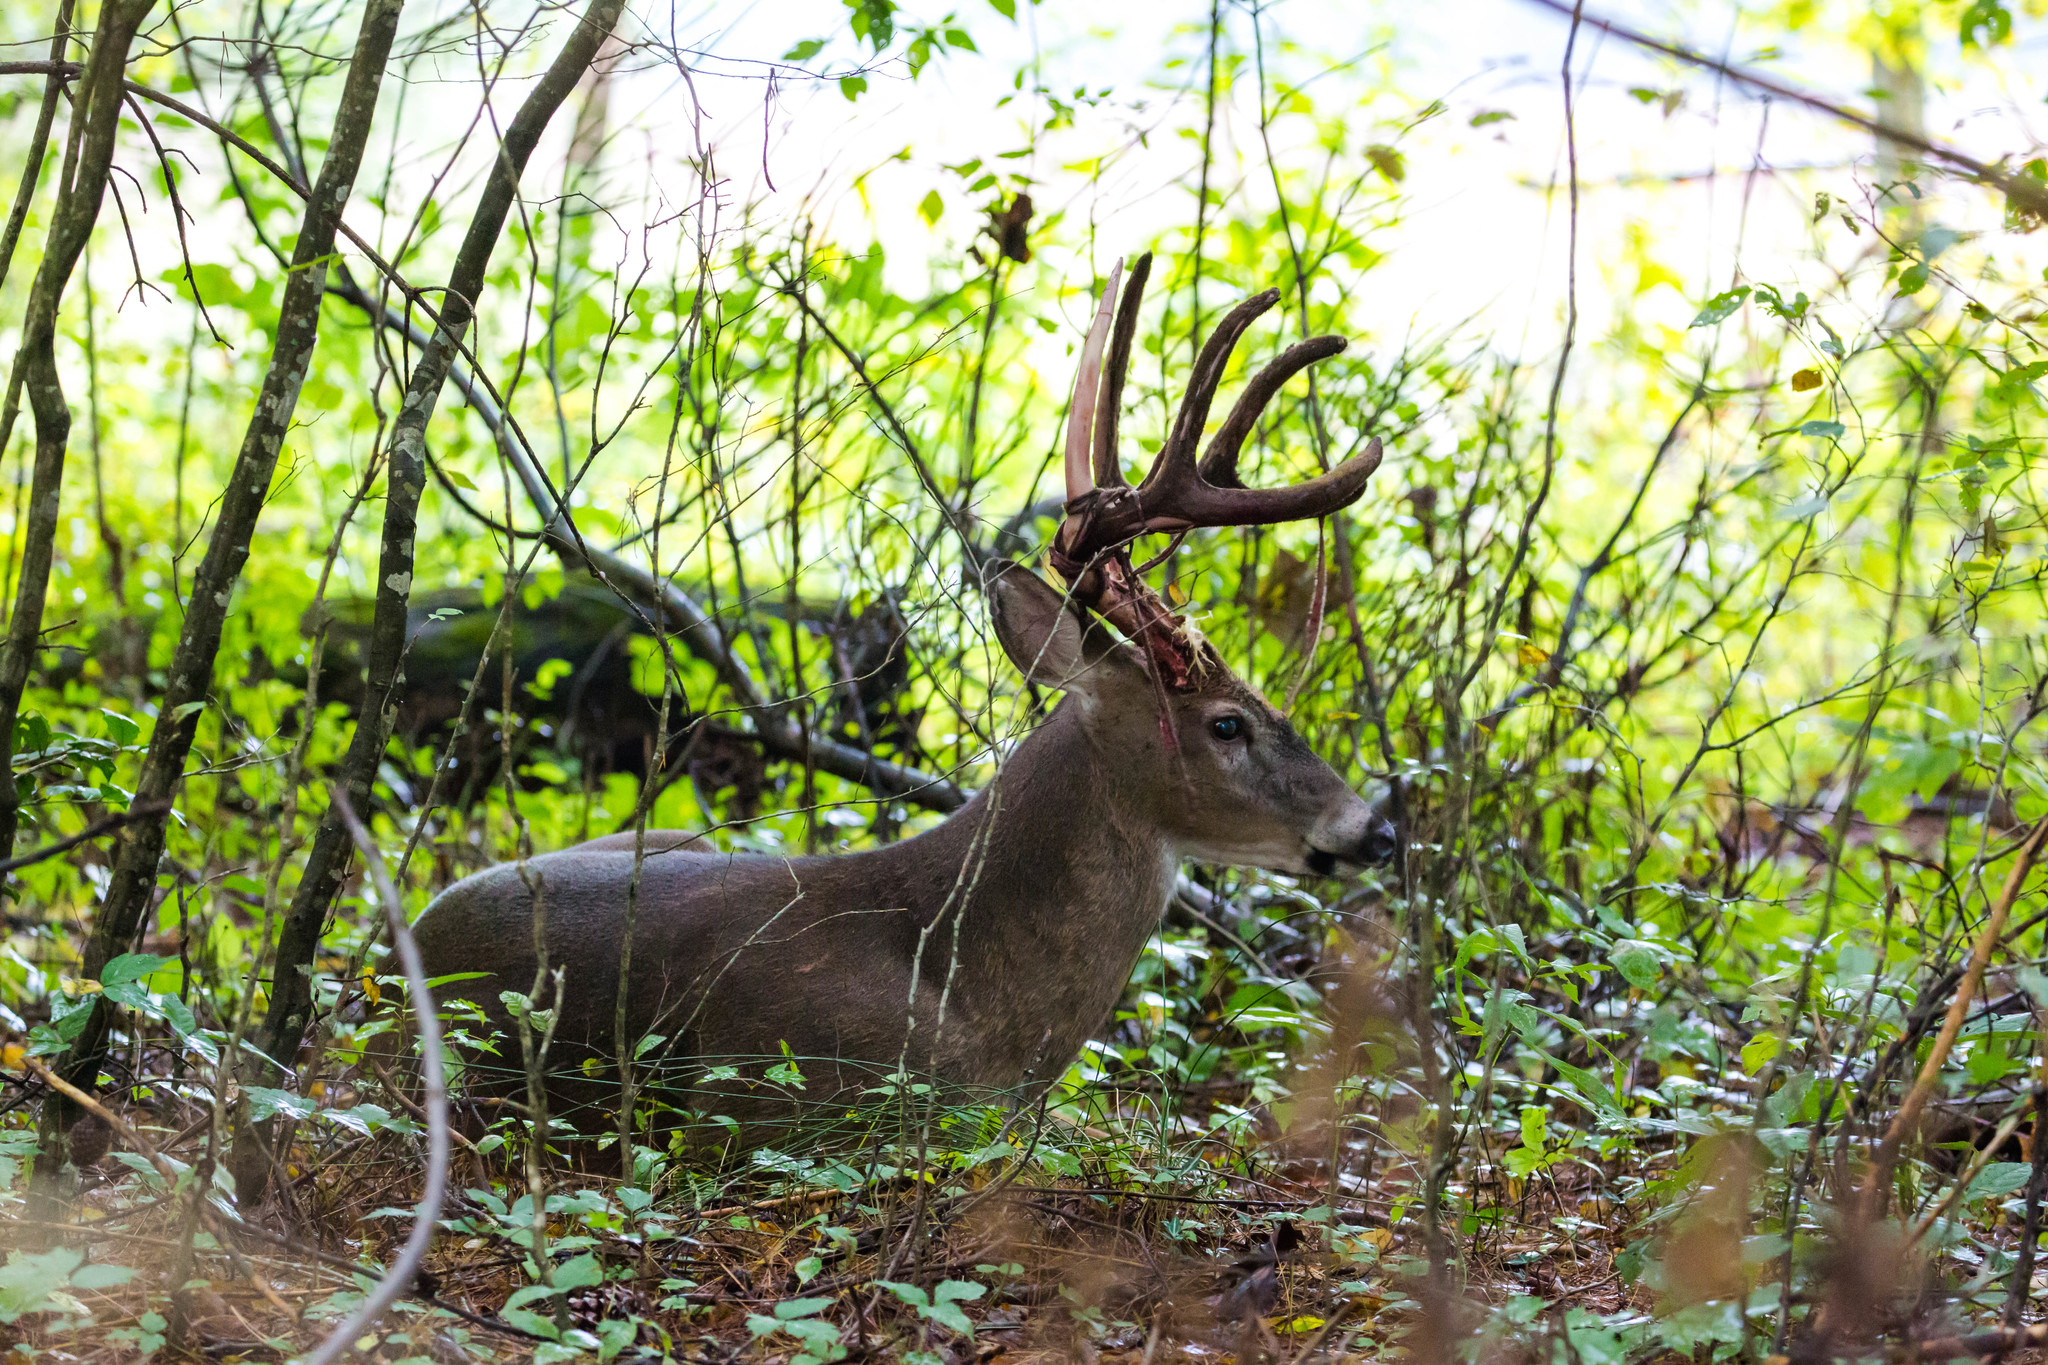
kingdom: Animalia
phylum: Chordata
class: Mammalia
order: Artiodactyla
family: Cervidae
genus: Odocoileus
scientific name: Odocoileus virginianus
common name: White-tailed deer
